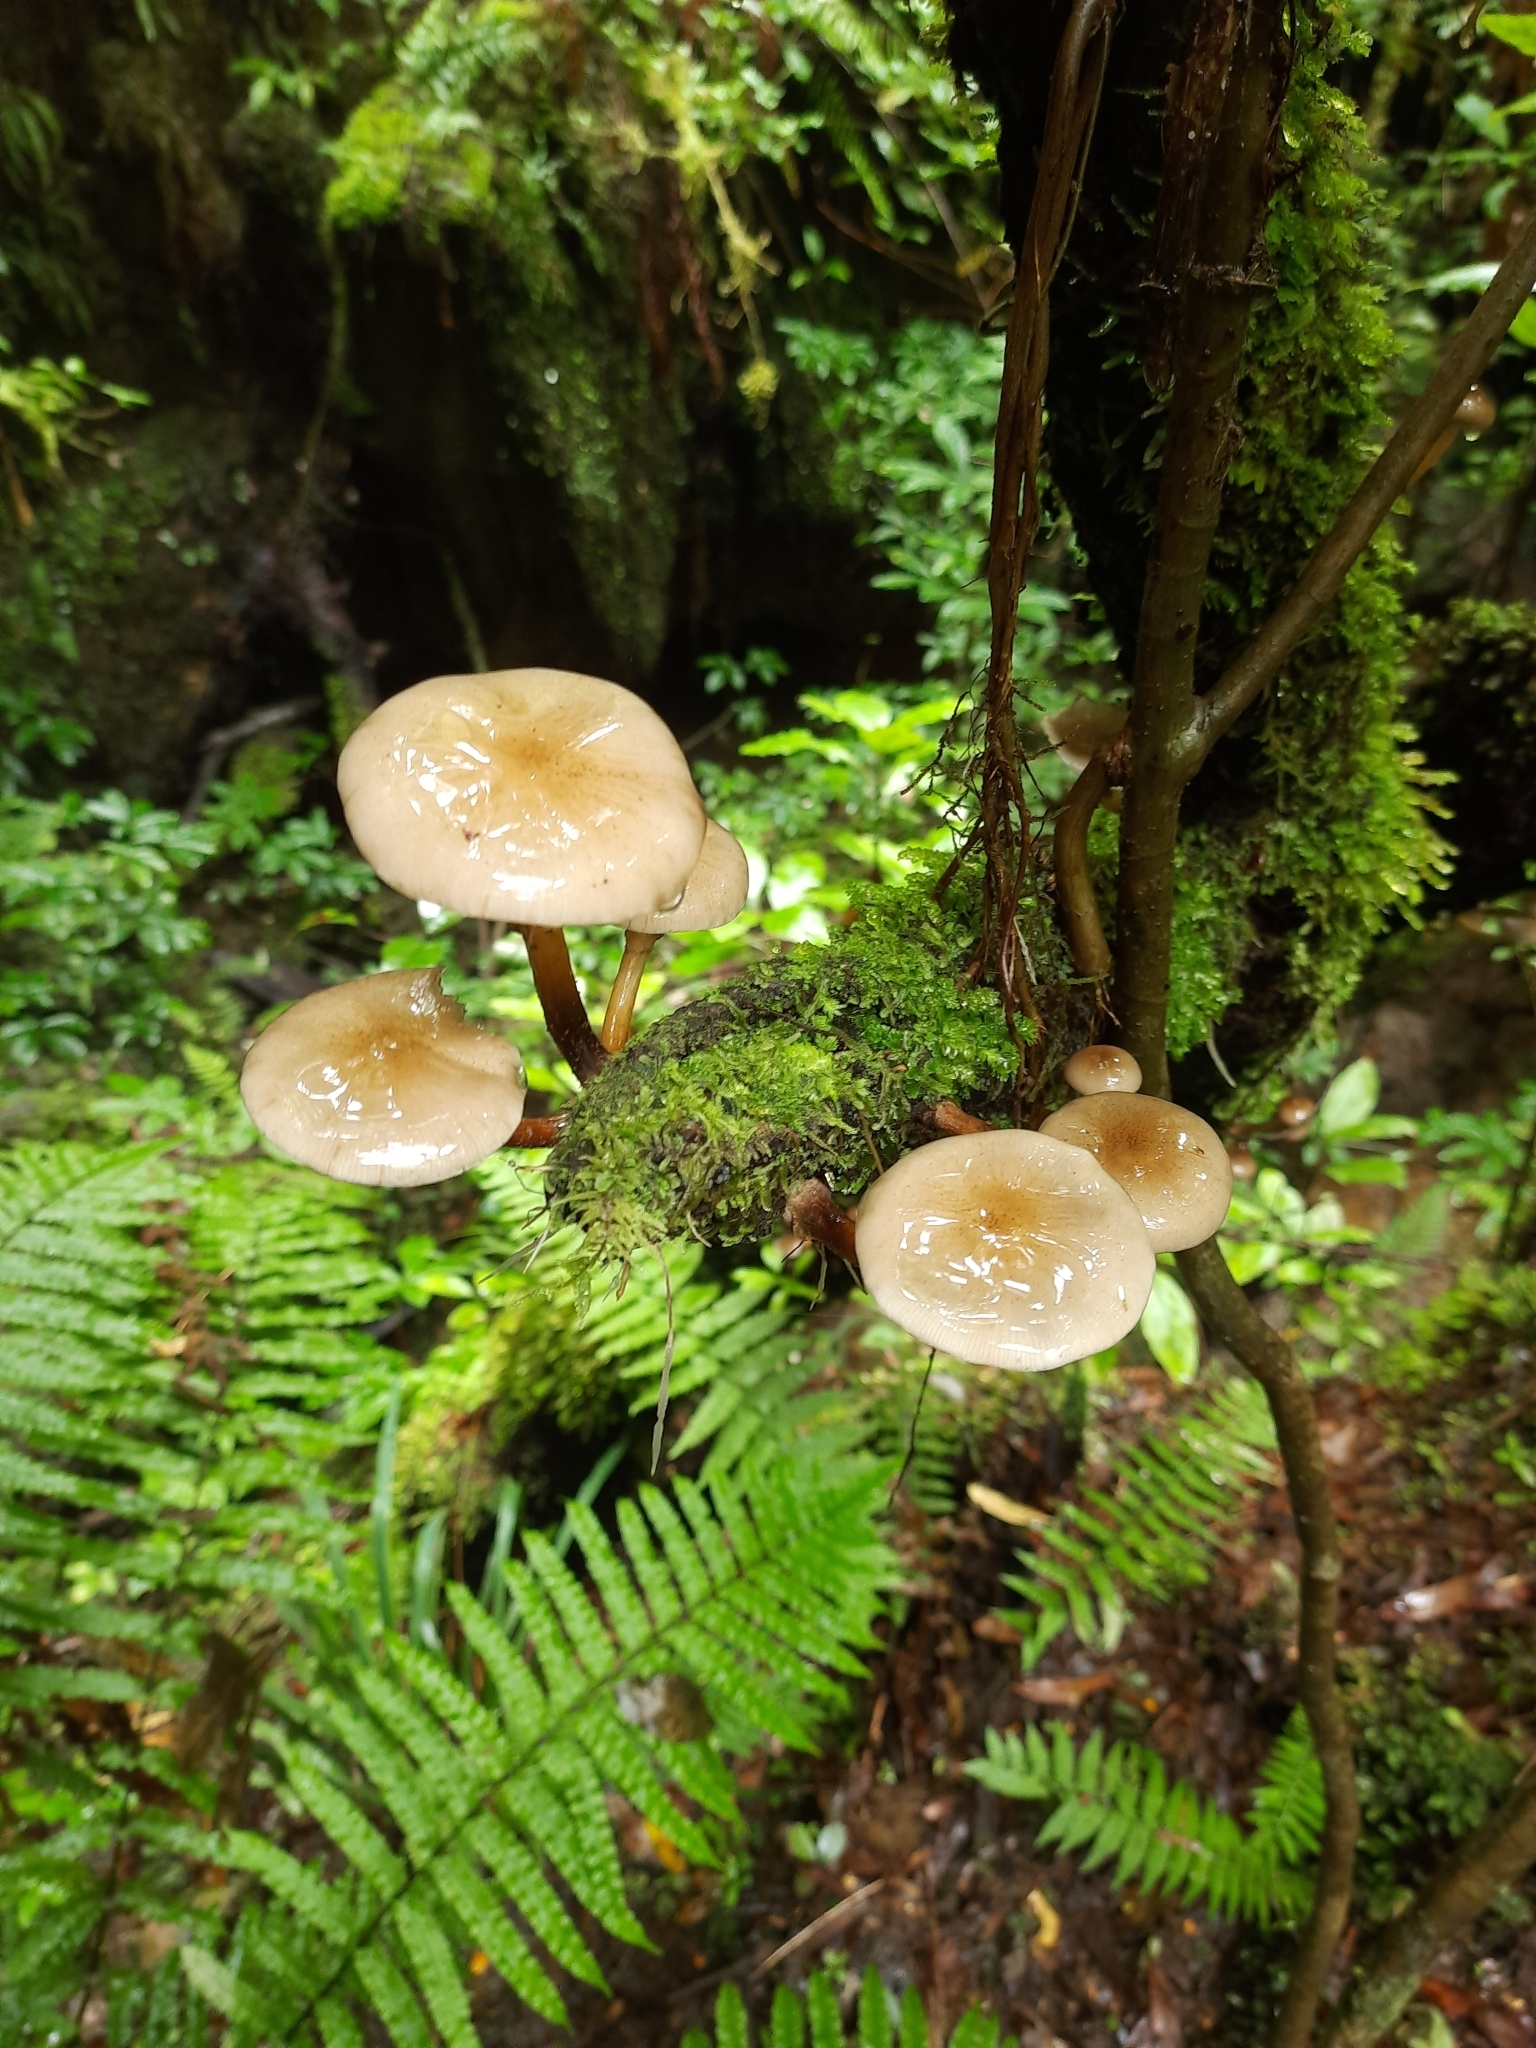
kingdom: Fungi
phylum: Basidiomycota
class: Agaricomycetes
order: Agaricales
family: Physalacriaceae
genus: Armillaria
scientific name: Armillaria novae-zelandiae
